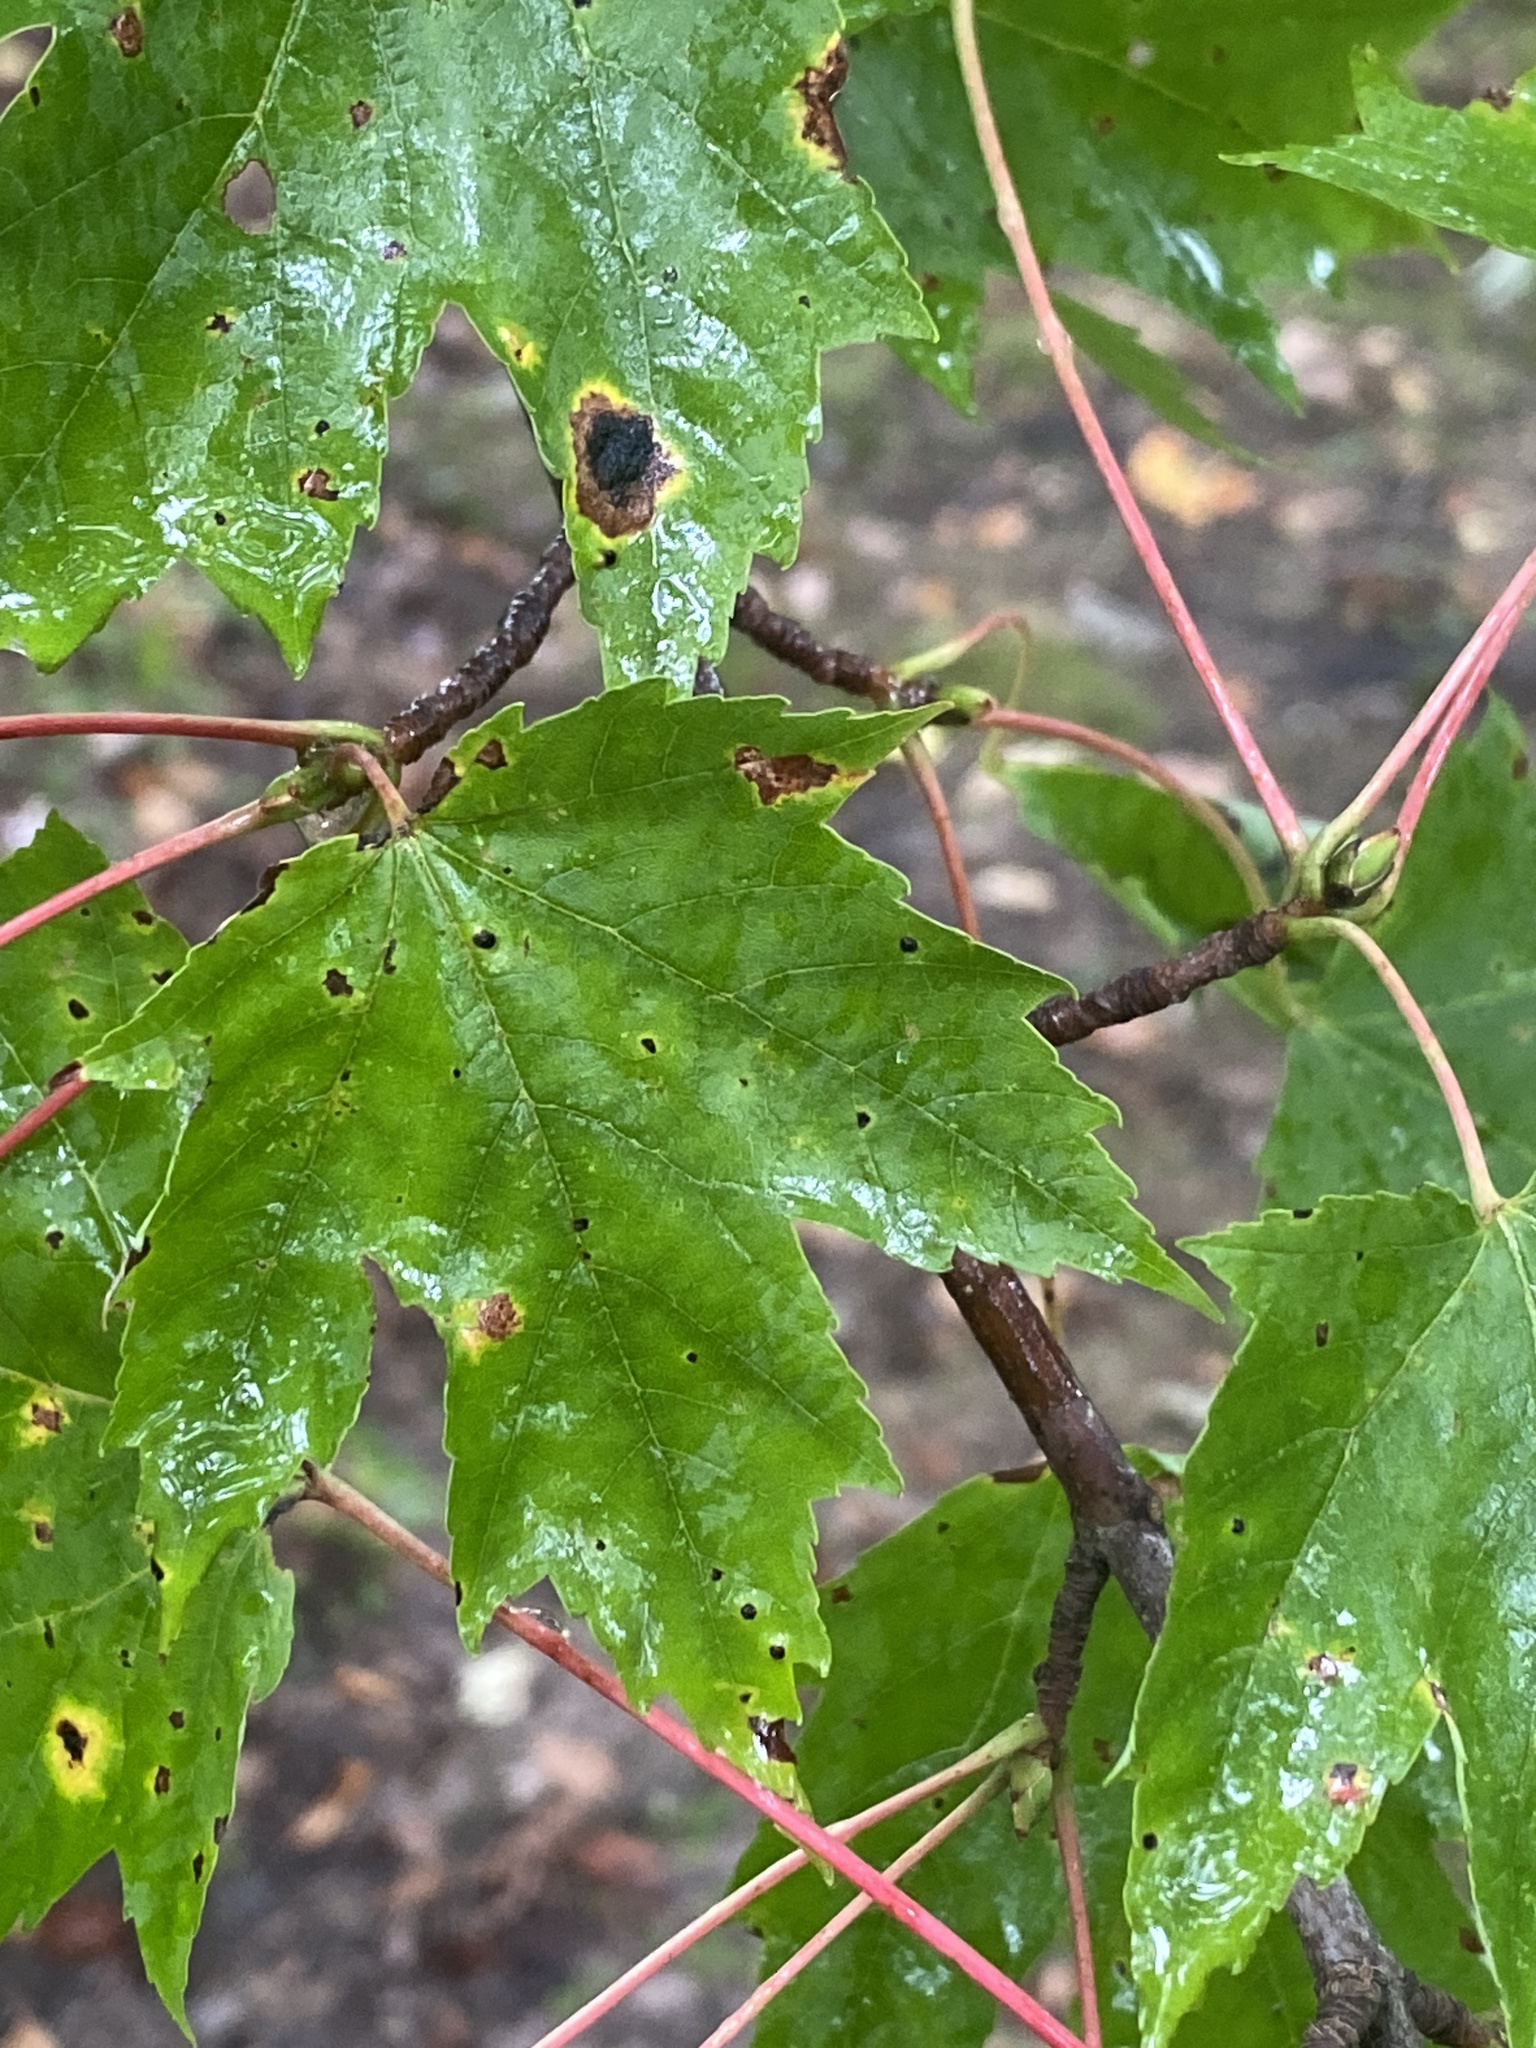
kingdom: Plantae
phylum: Tracheophyta
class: Magnoliopsida
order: Sapindales
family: Sapindaceae
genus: Acer
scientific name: Acer rubrum
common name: Red maple
